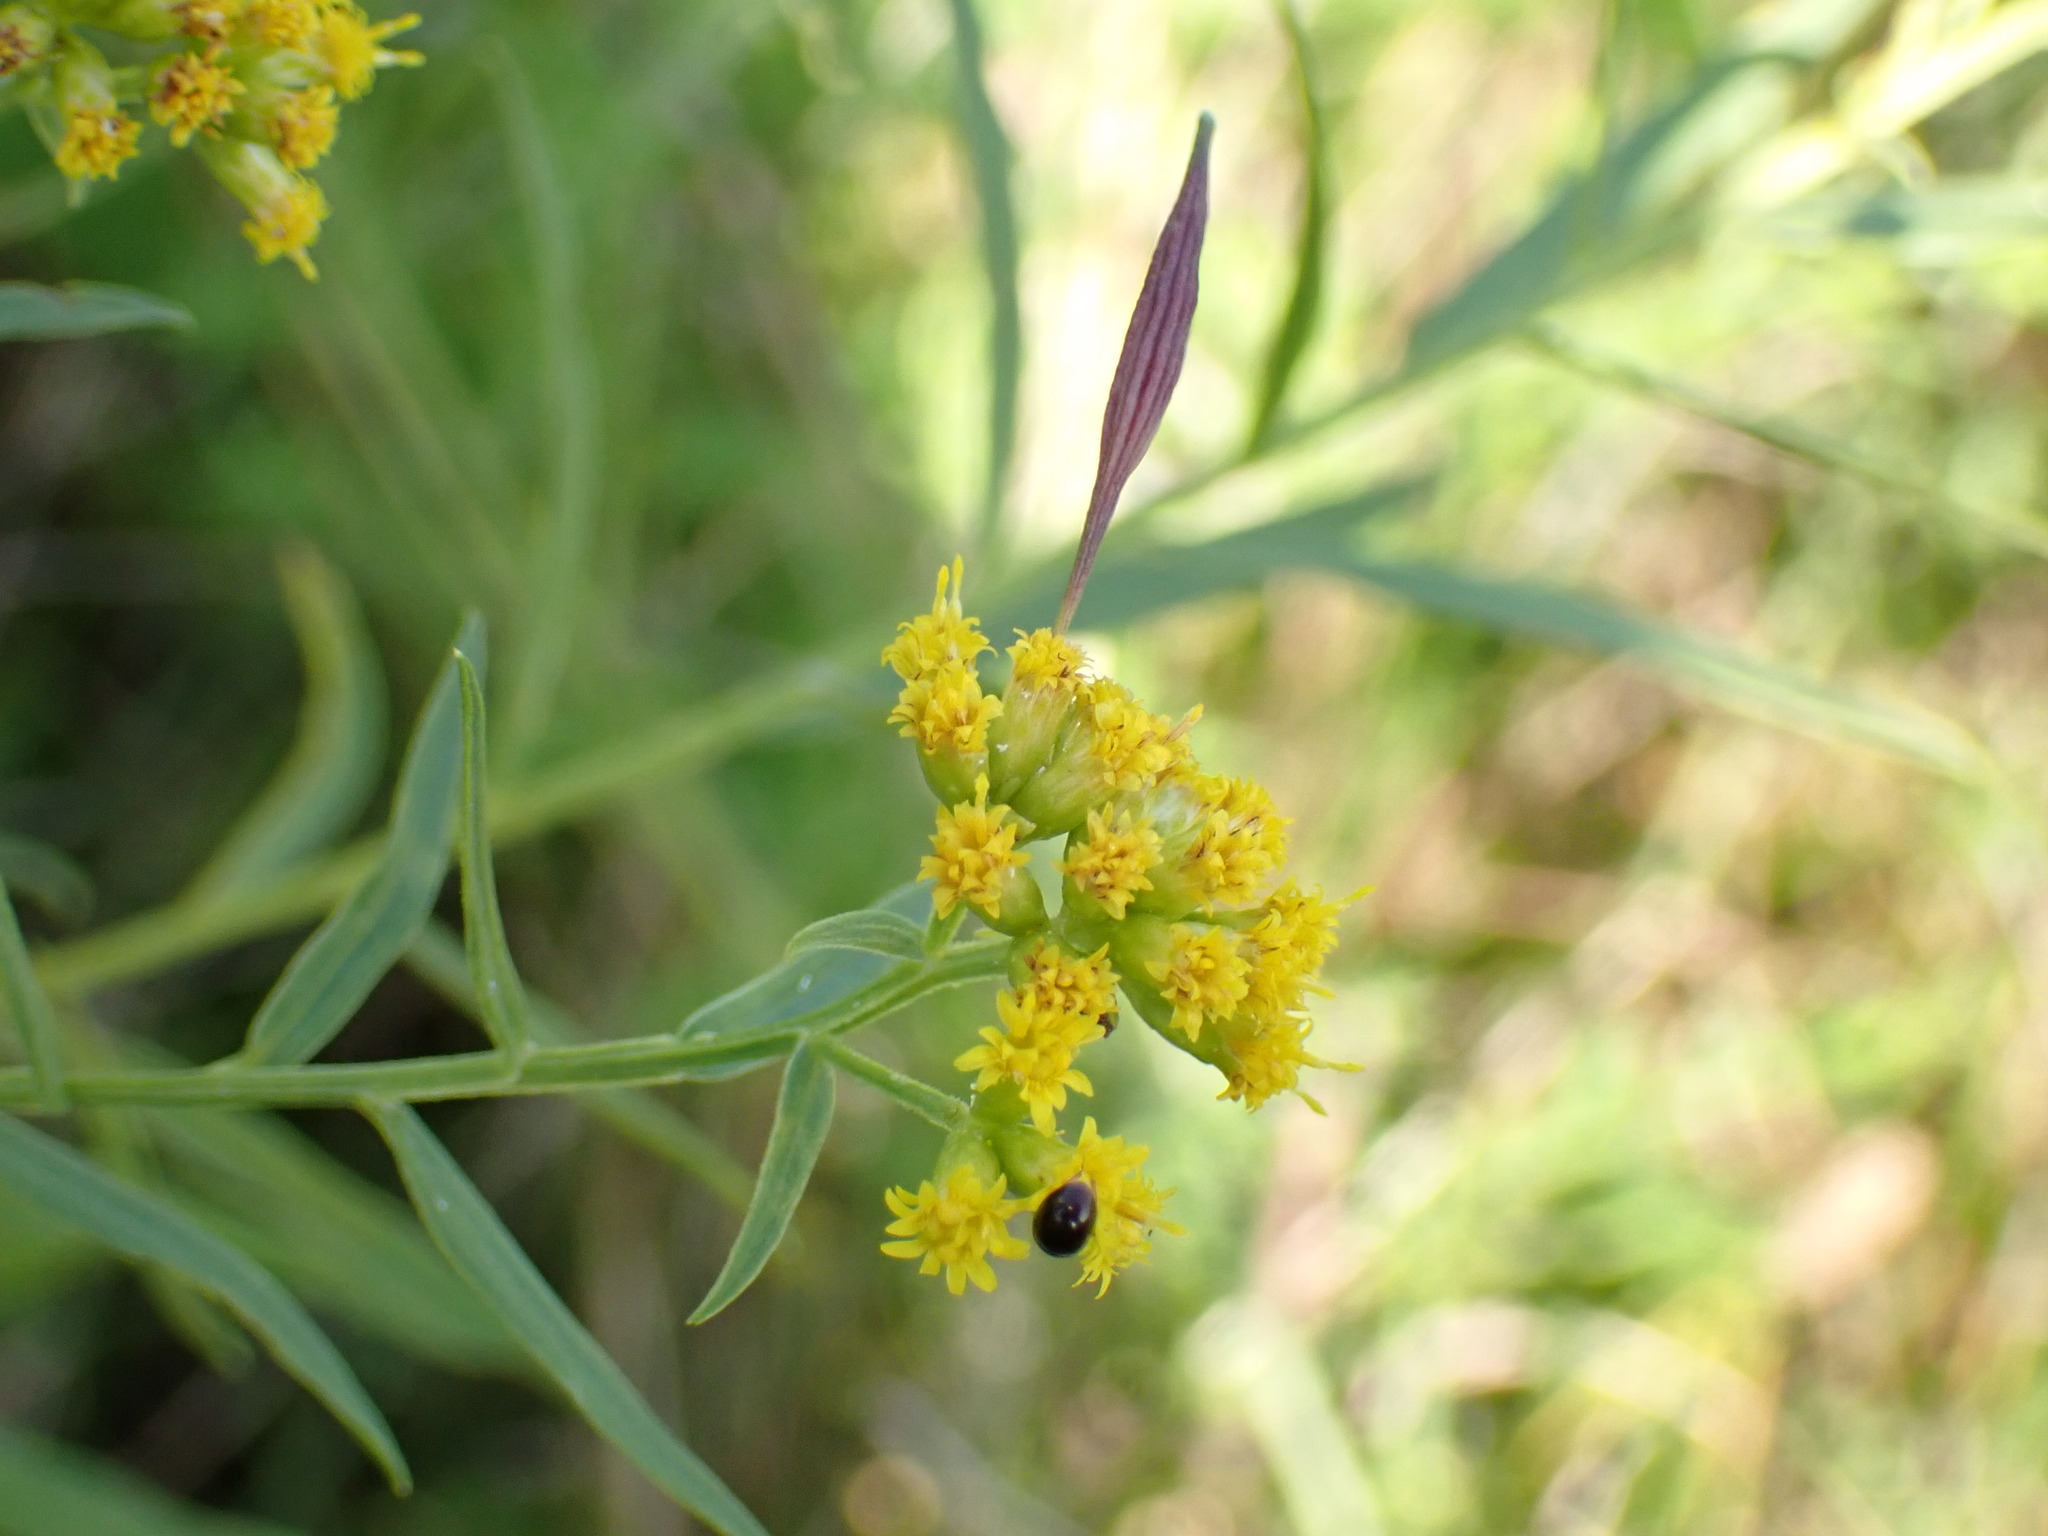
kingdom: Animalia
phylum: Arthropoda
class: Insecta
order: Diptera
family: Cecidomyiidae
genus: Rhopalomyia
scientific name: Rhopalomyia pedicellata
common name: Goldentop pedicellate gall midge
